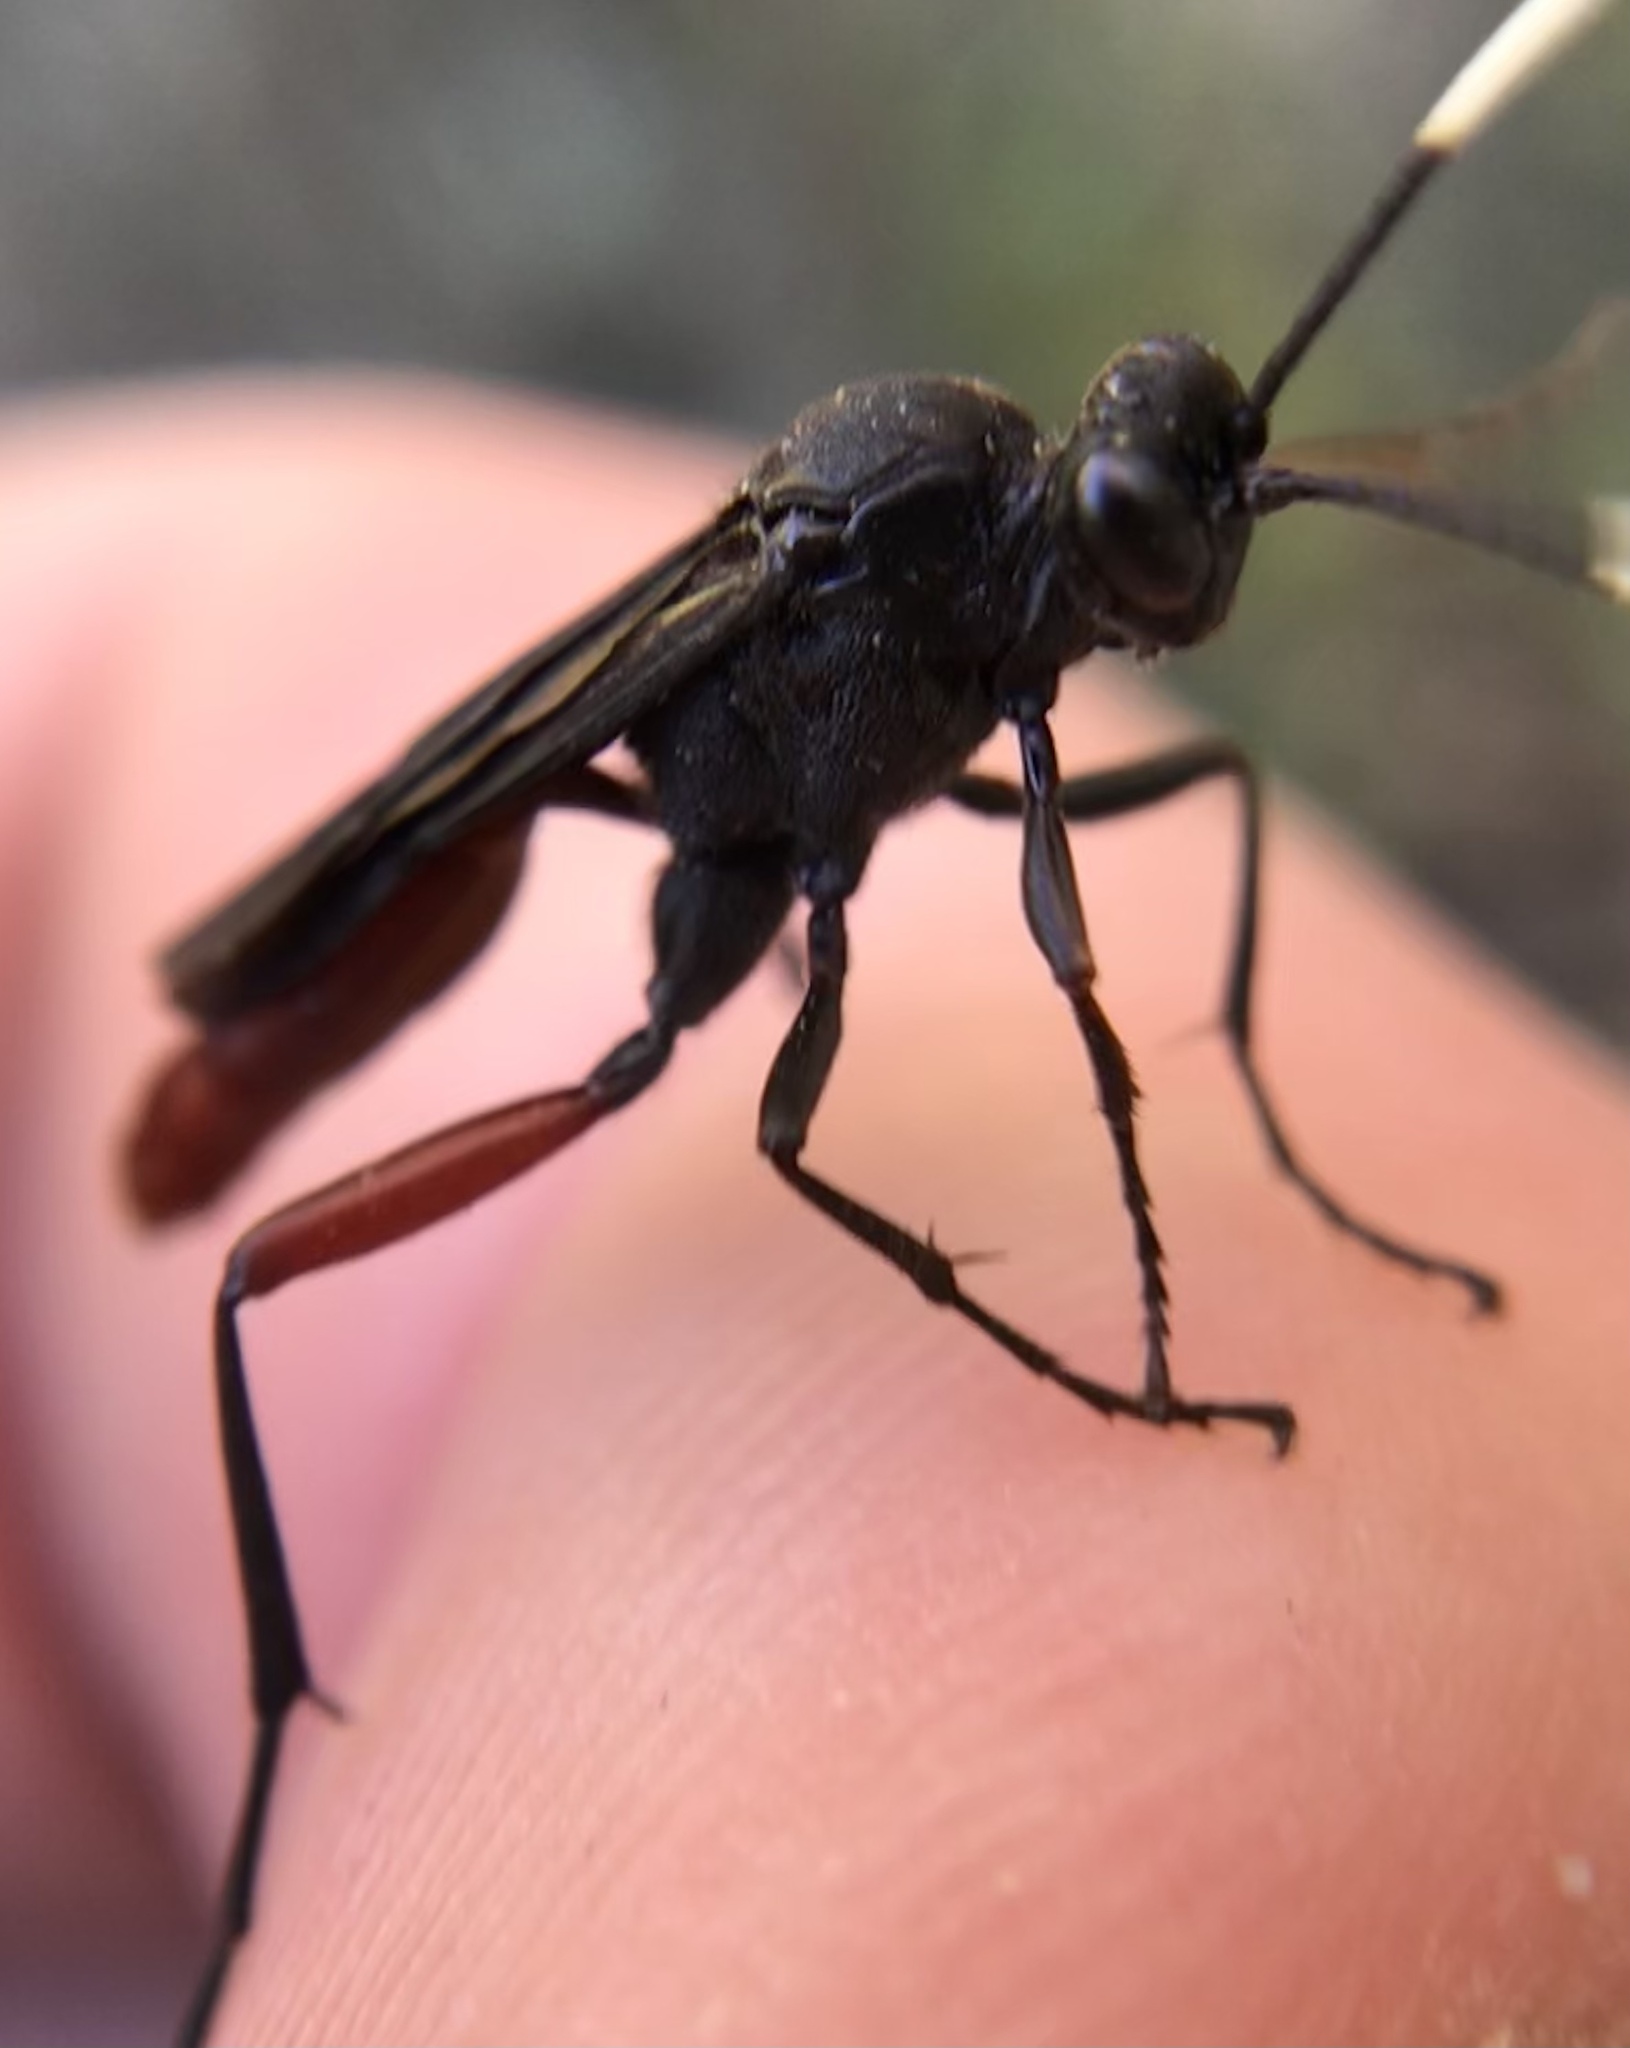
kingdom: Animalia
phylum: Arthropoda
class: Insecta
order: Hymenoptera
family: Ichneumonidae
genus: Limonethe
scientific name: Limonethe maurator
